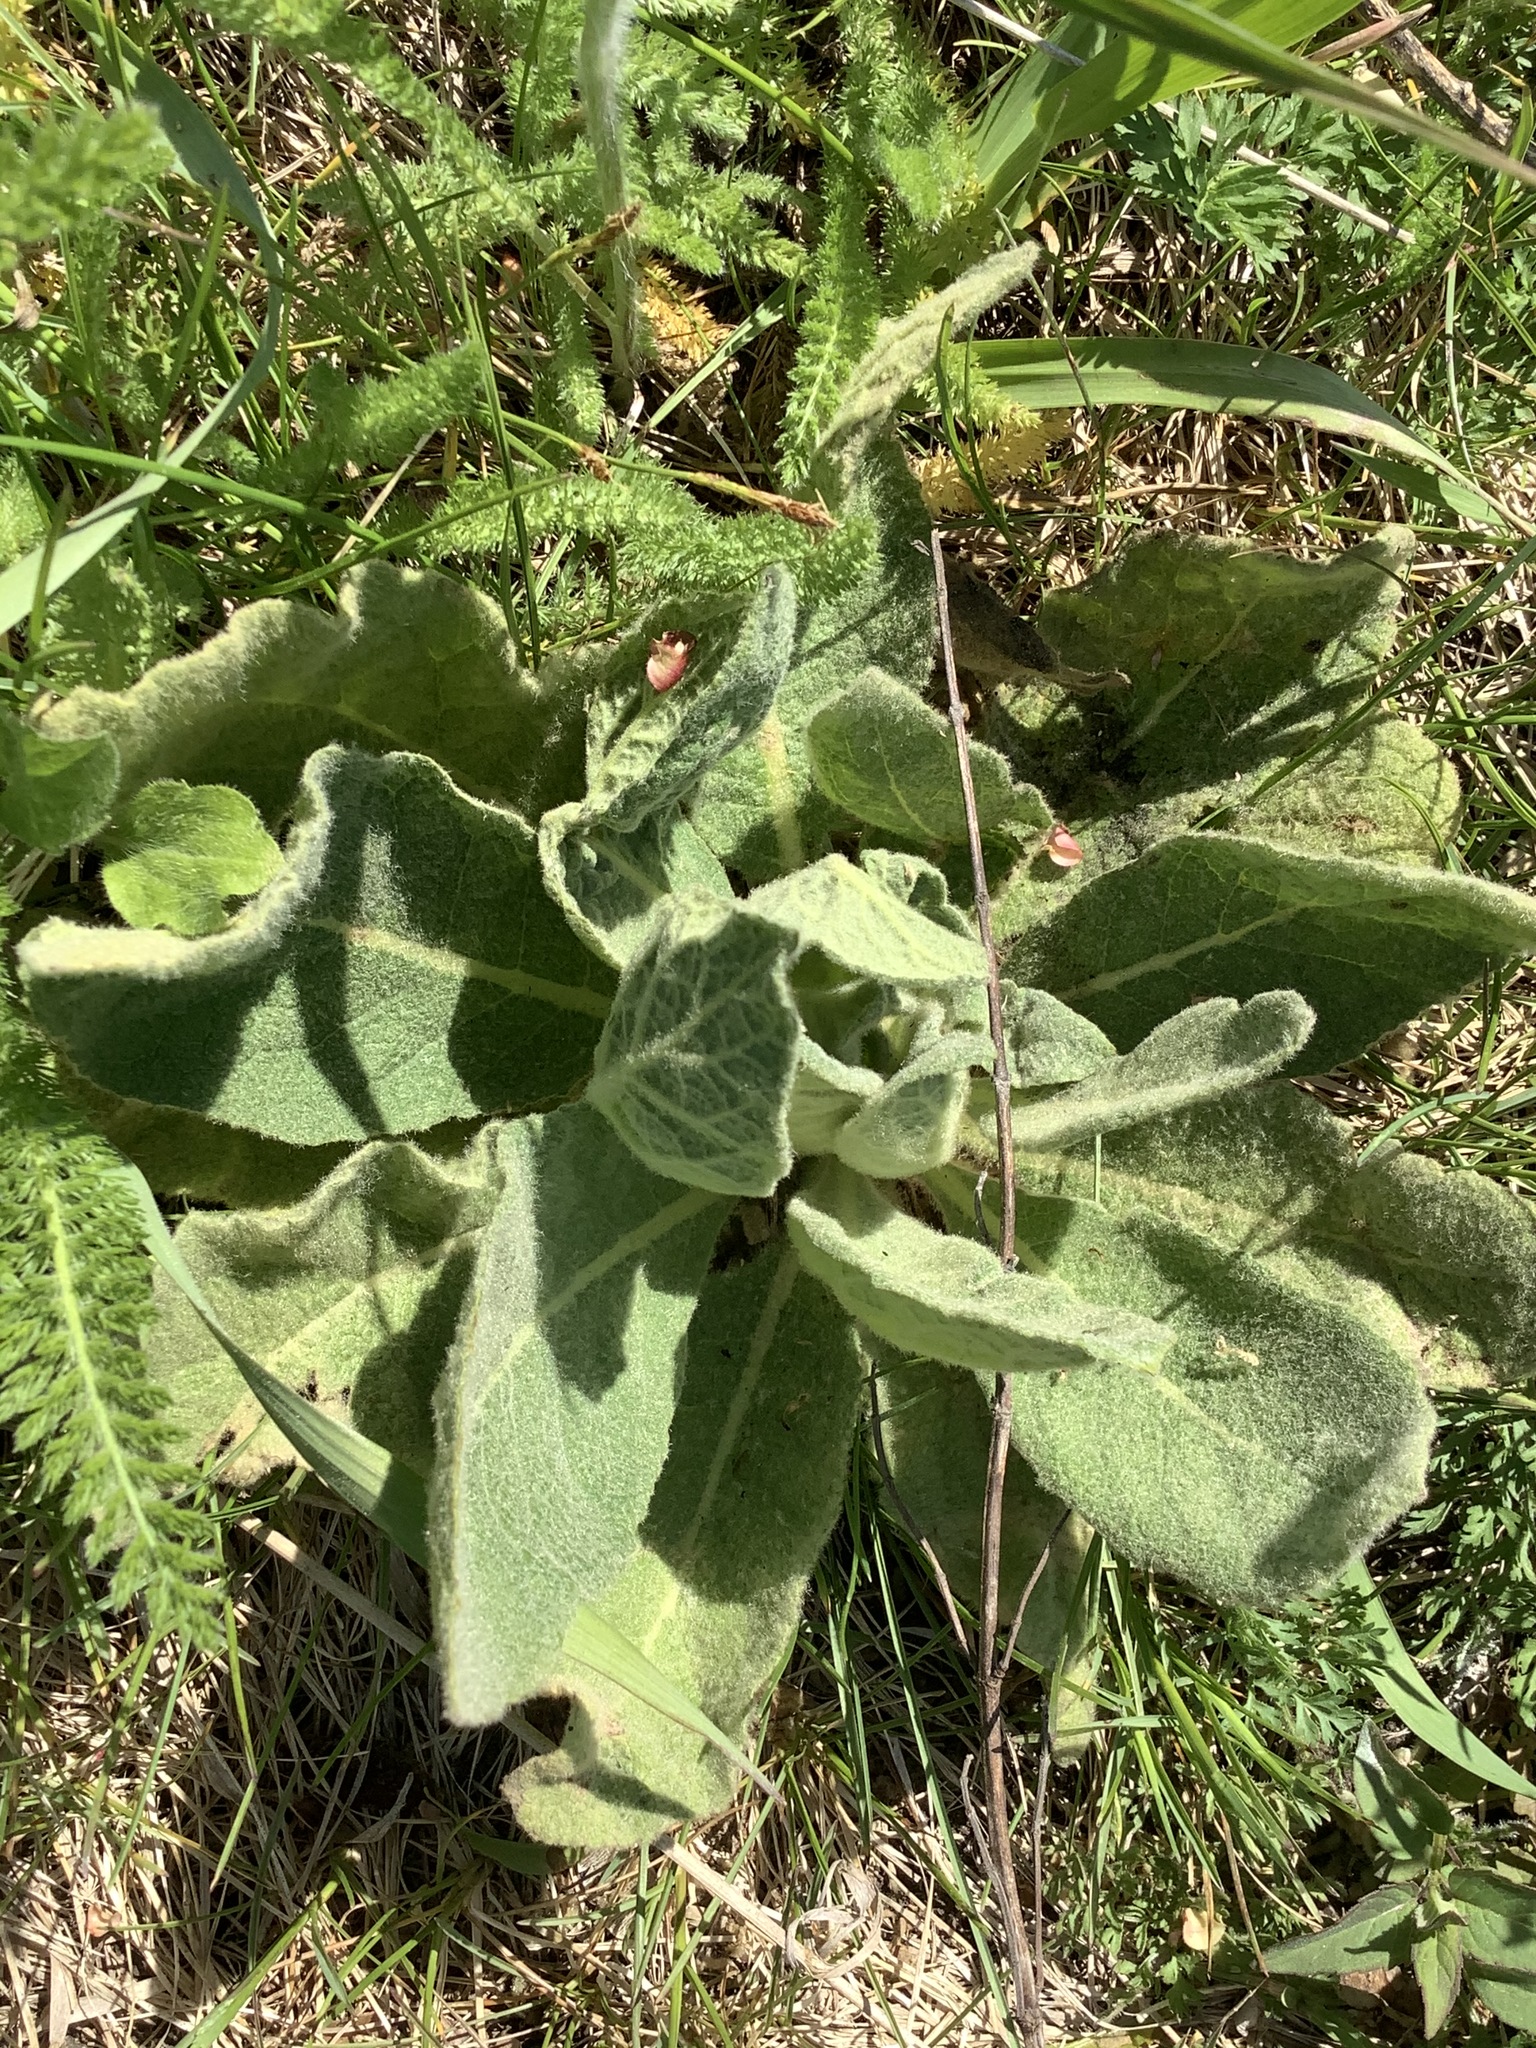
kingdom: Plantae
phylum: Tracheophyta
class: Magnoliopsida
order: Lamiales
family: Scrophulariaceae
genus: Verbascum
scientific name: Verbascum thapsus
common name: Common mullein
